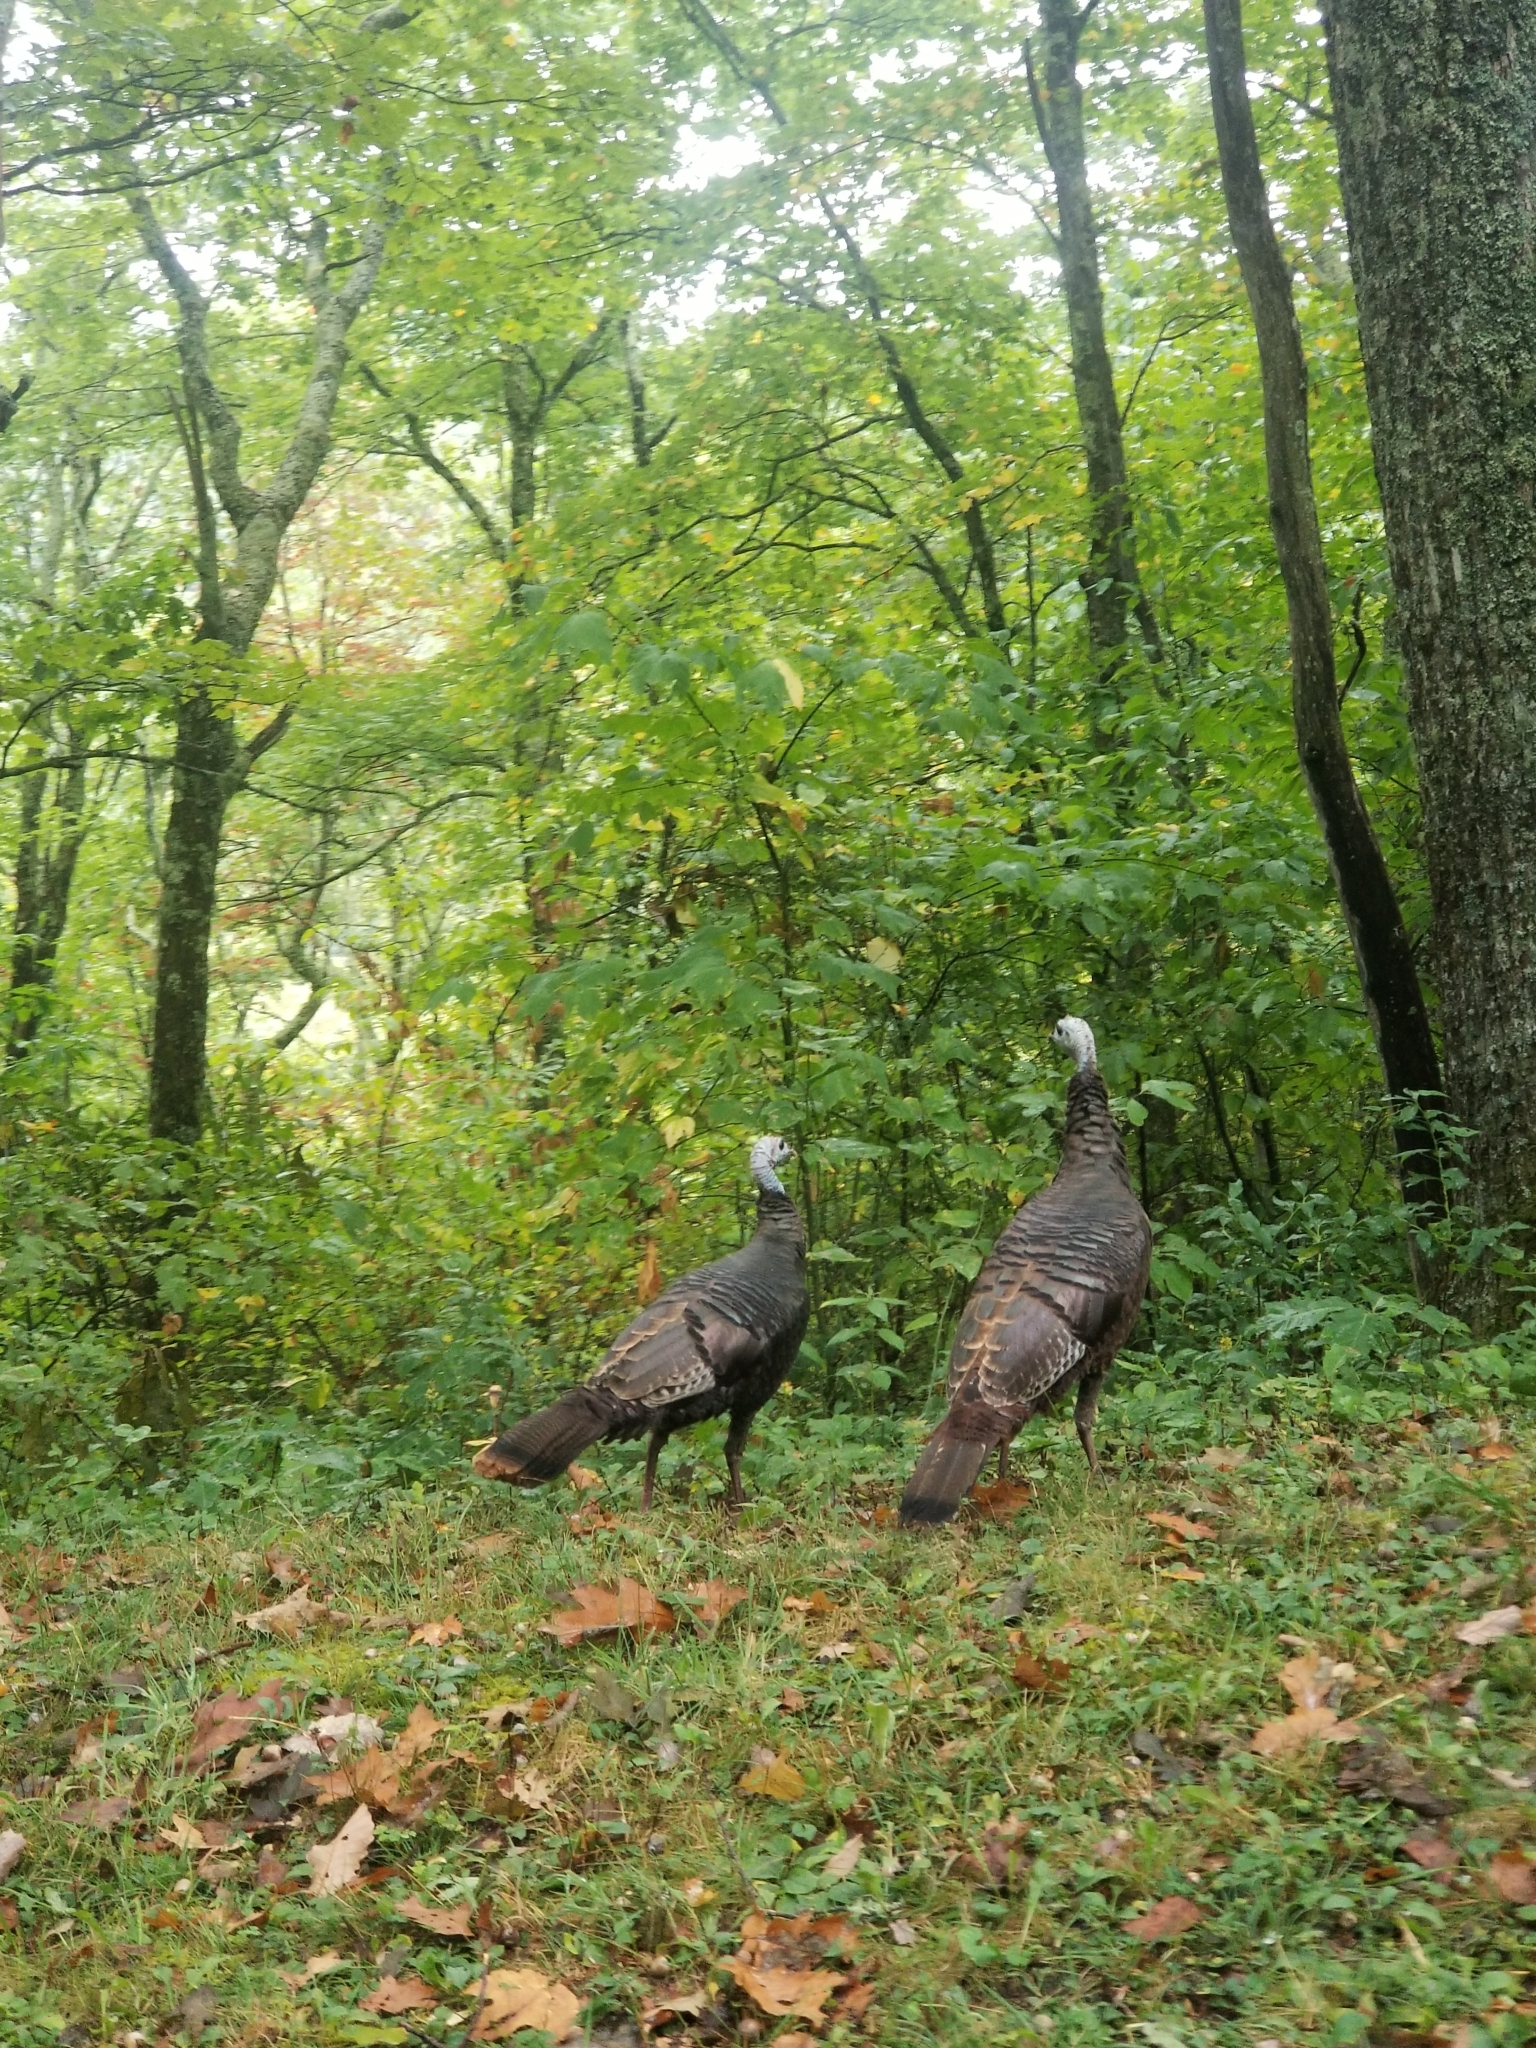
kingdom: Animalia
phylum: Chordata
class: Aves
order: Galliformes
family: Phasianidae
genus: Meleagris
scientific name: Meleagris gallopavo
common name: Wild turkey
